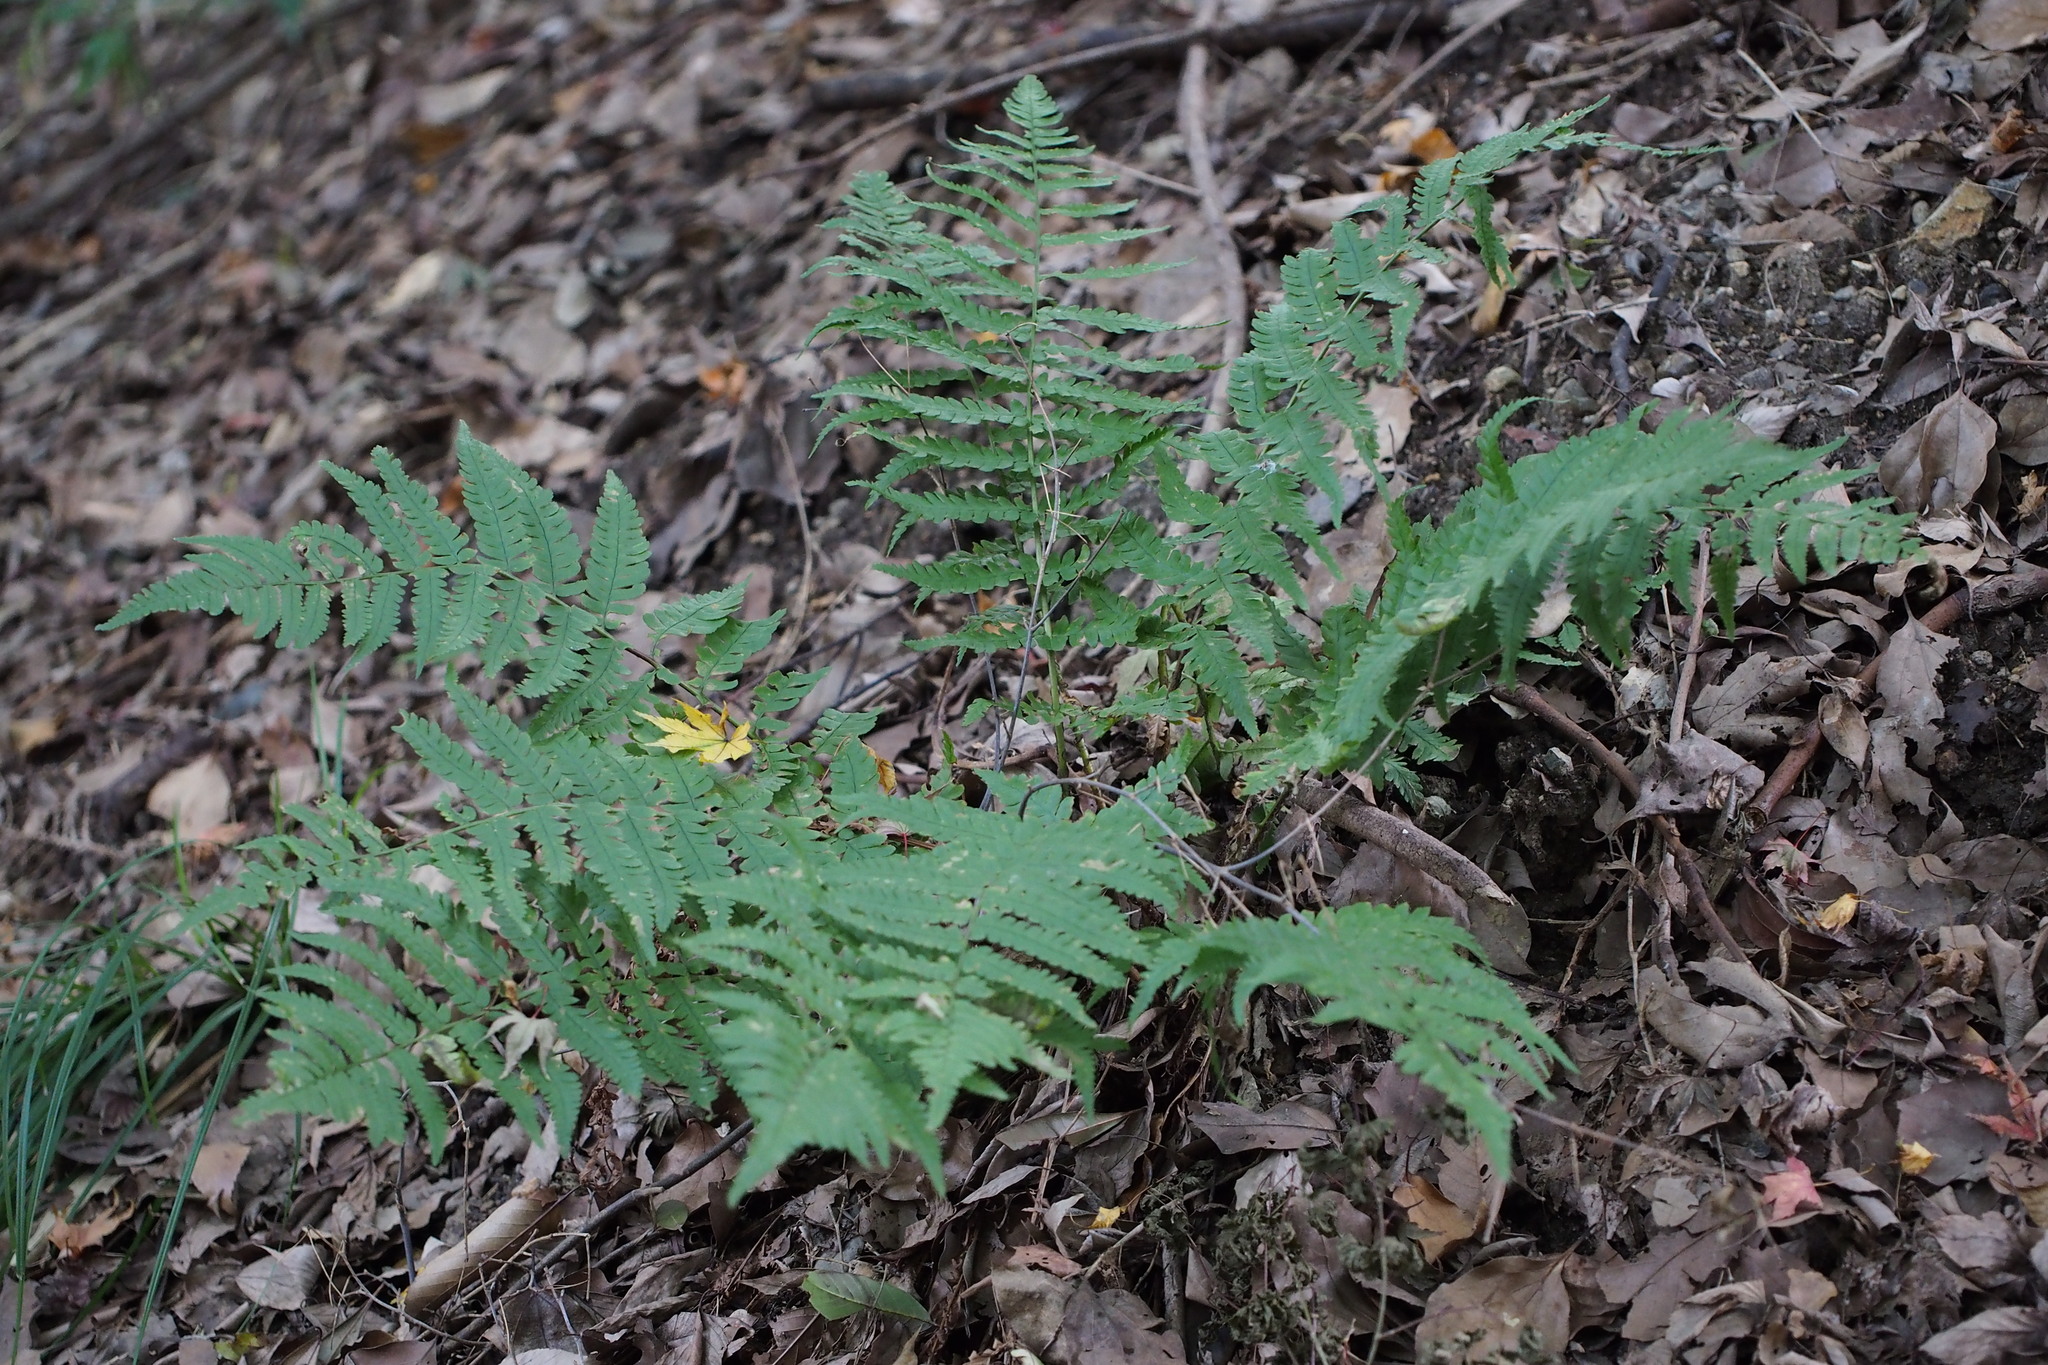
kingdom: Plantae
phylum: Tracheophyta
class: Polypodiopsida
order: Polypodiales
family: Dryopteridaceae
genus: Dryopteris
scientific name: Dryopteris uniformis
